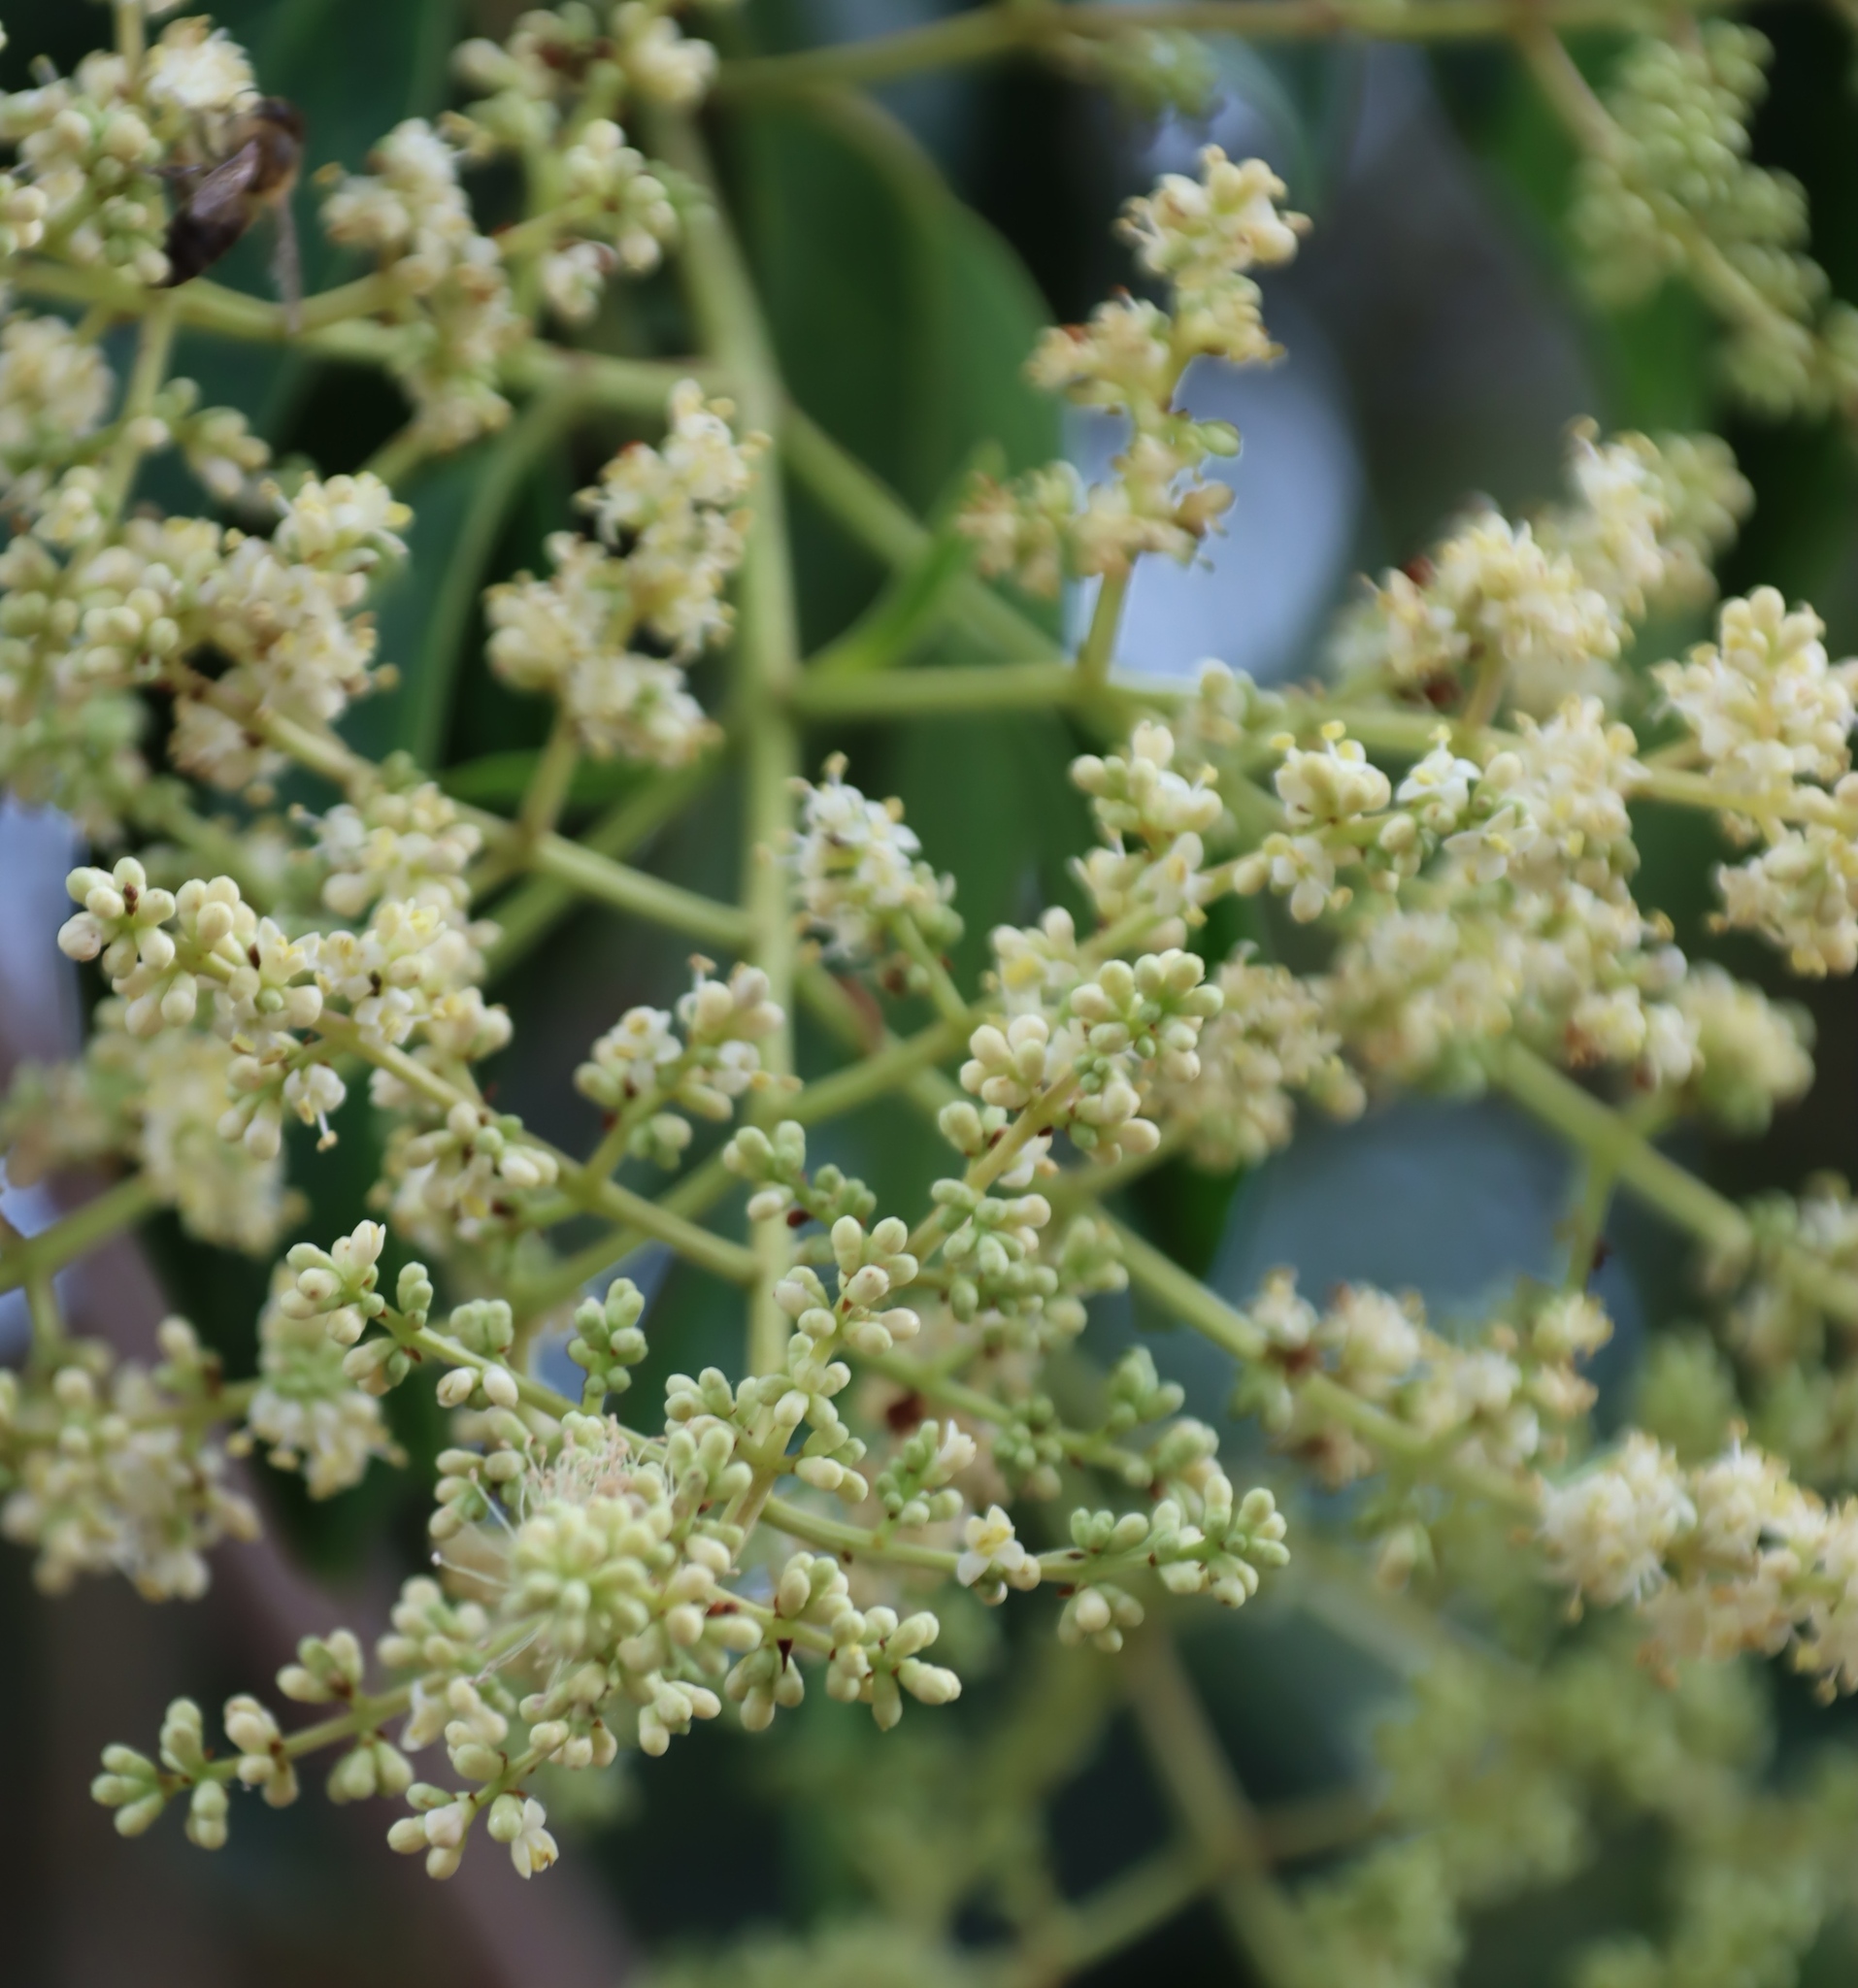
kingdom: Plantae
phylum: Tracheophyta
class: Magnoliopsida
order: Lamiales
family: Oleaceae
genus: Ligustrum
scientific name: Ligustrum lucidum
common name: Glossy privet
